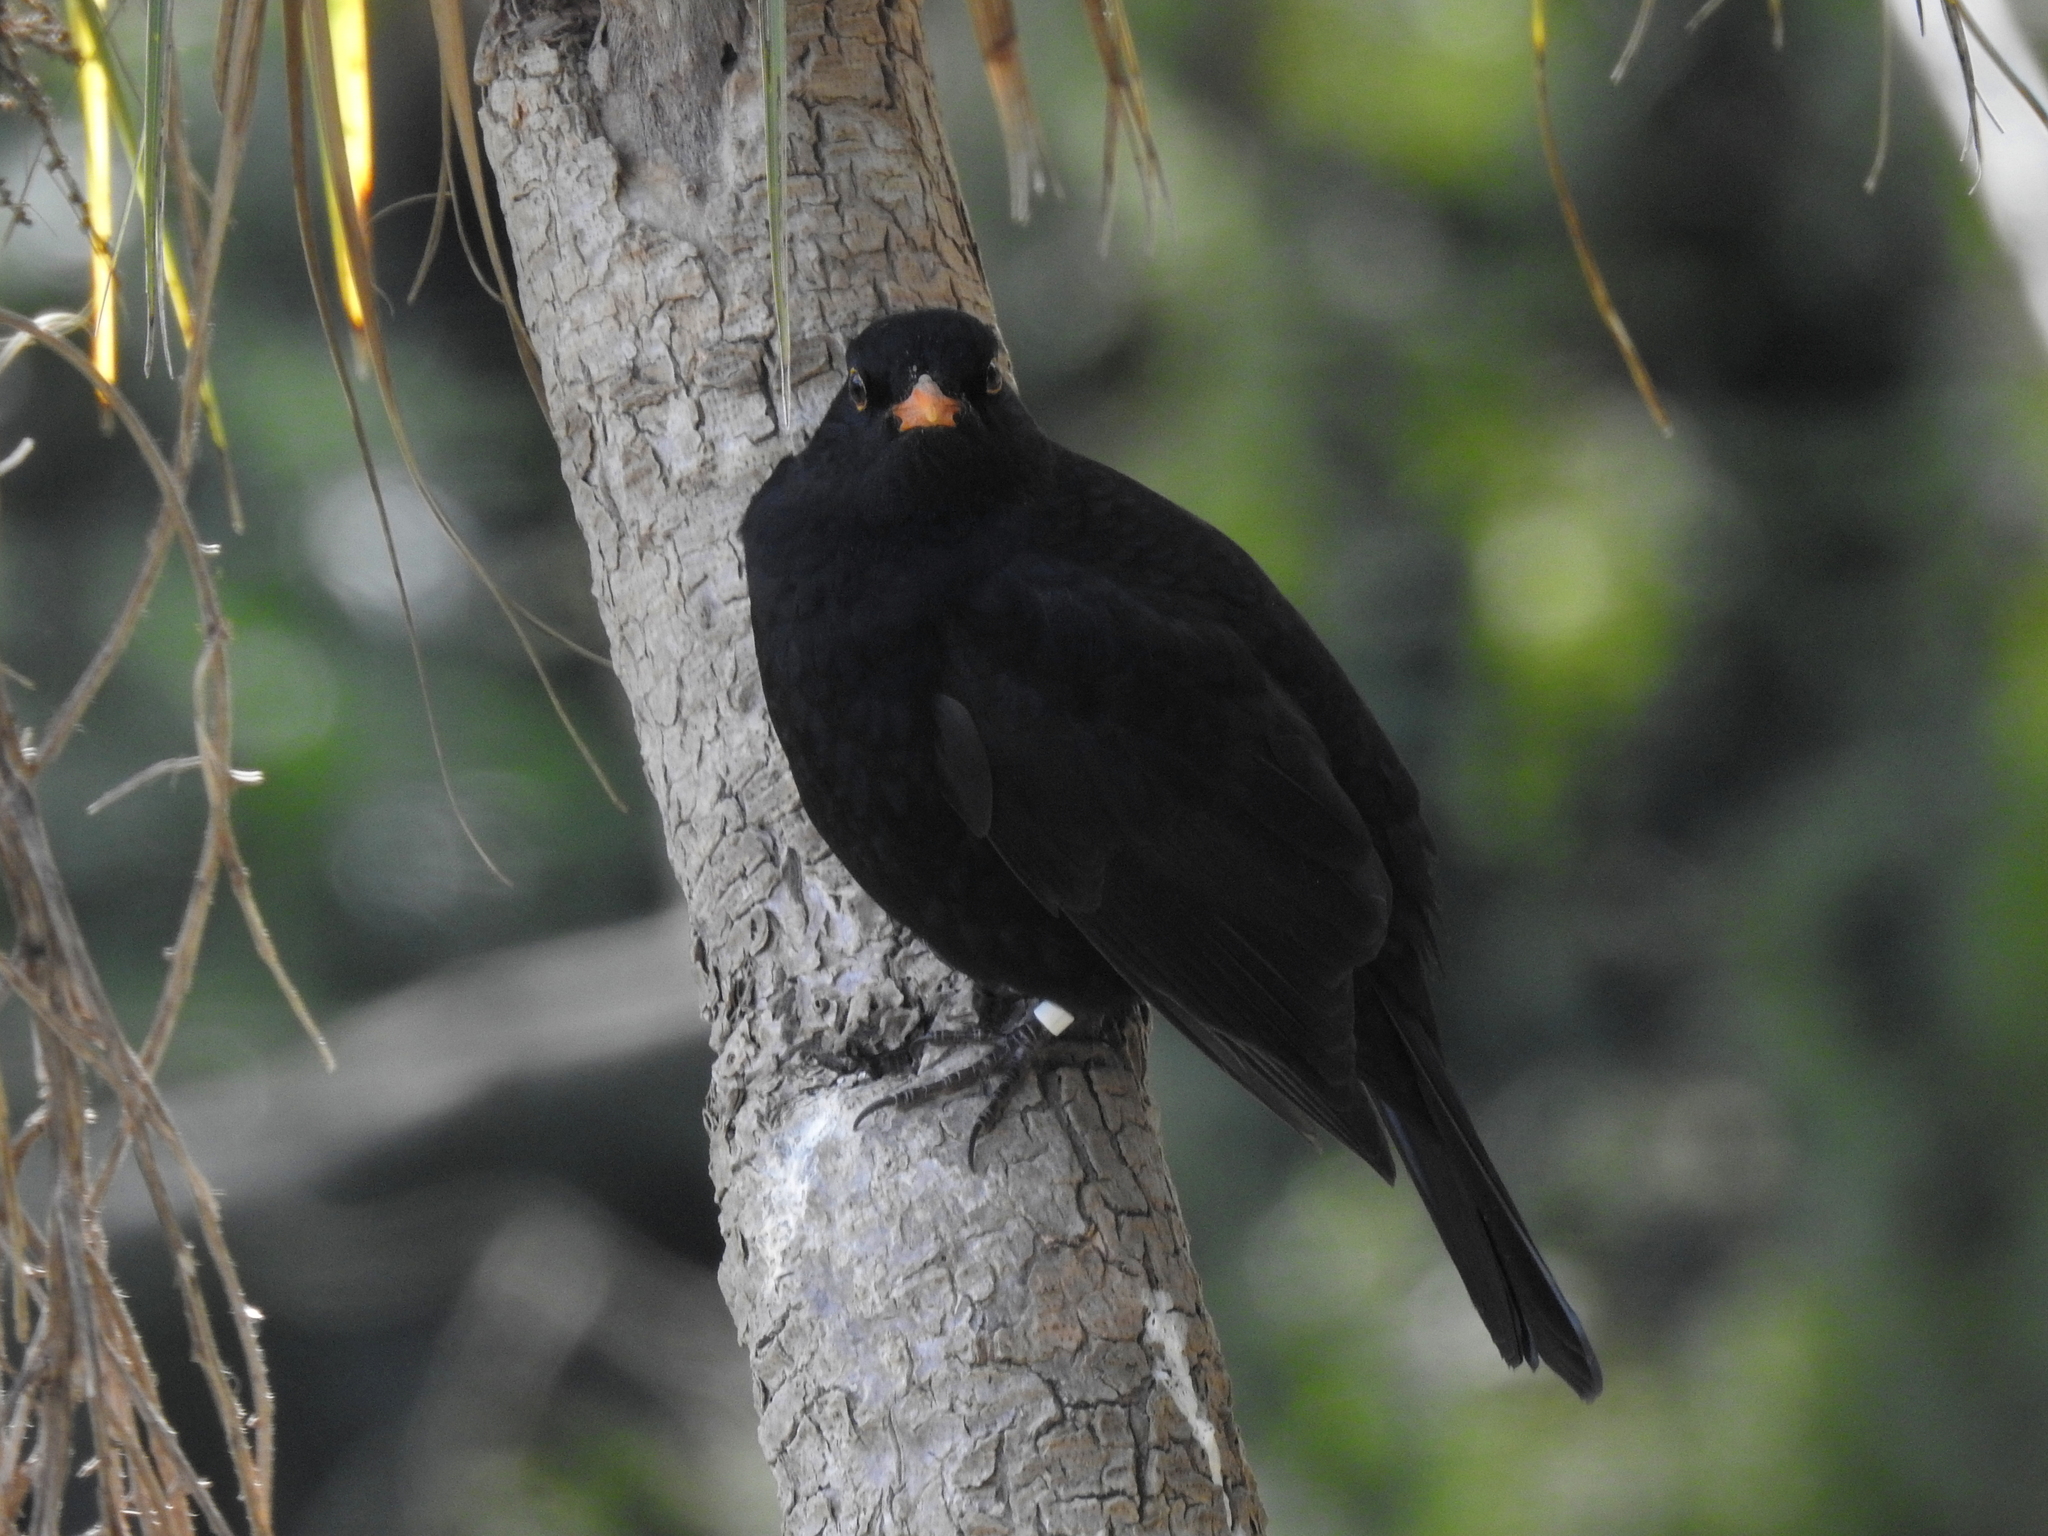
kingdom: Animalia
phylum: Chordata
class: Aves
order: Passeriformes
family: Turdidae
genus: Turdus
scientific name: Turdus merula
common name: Common blackbird
